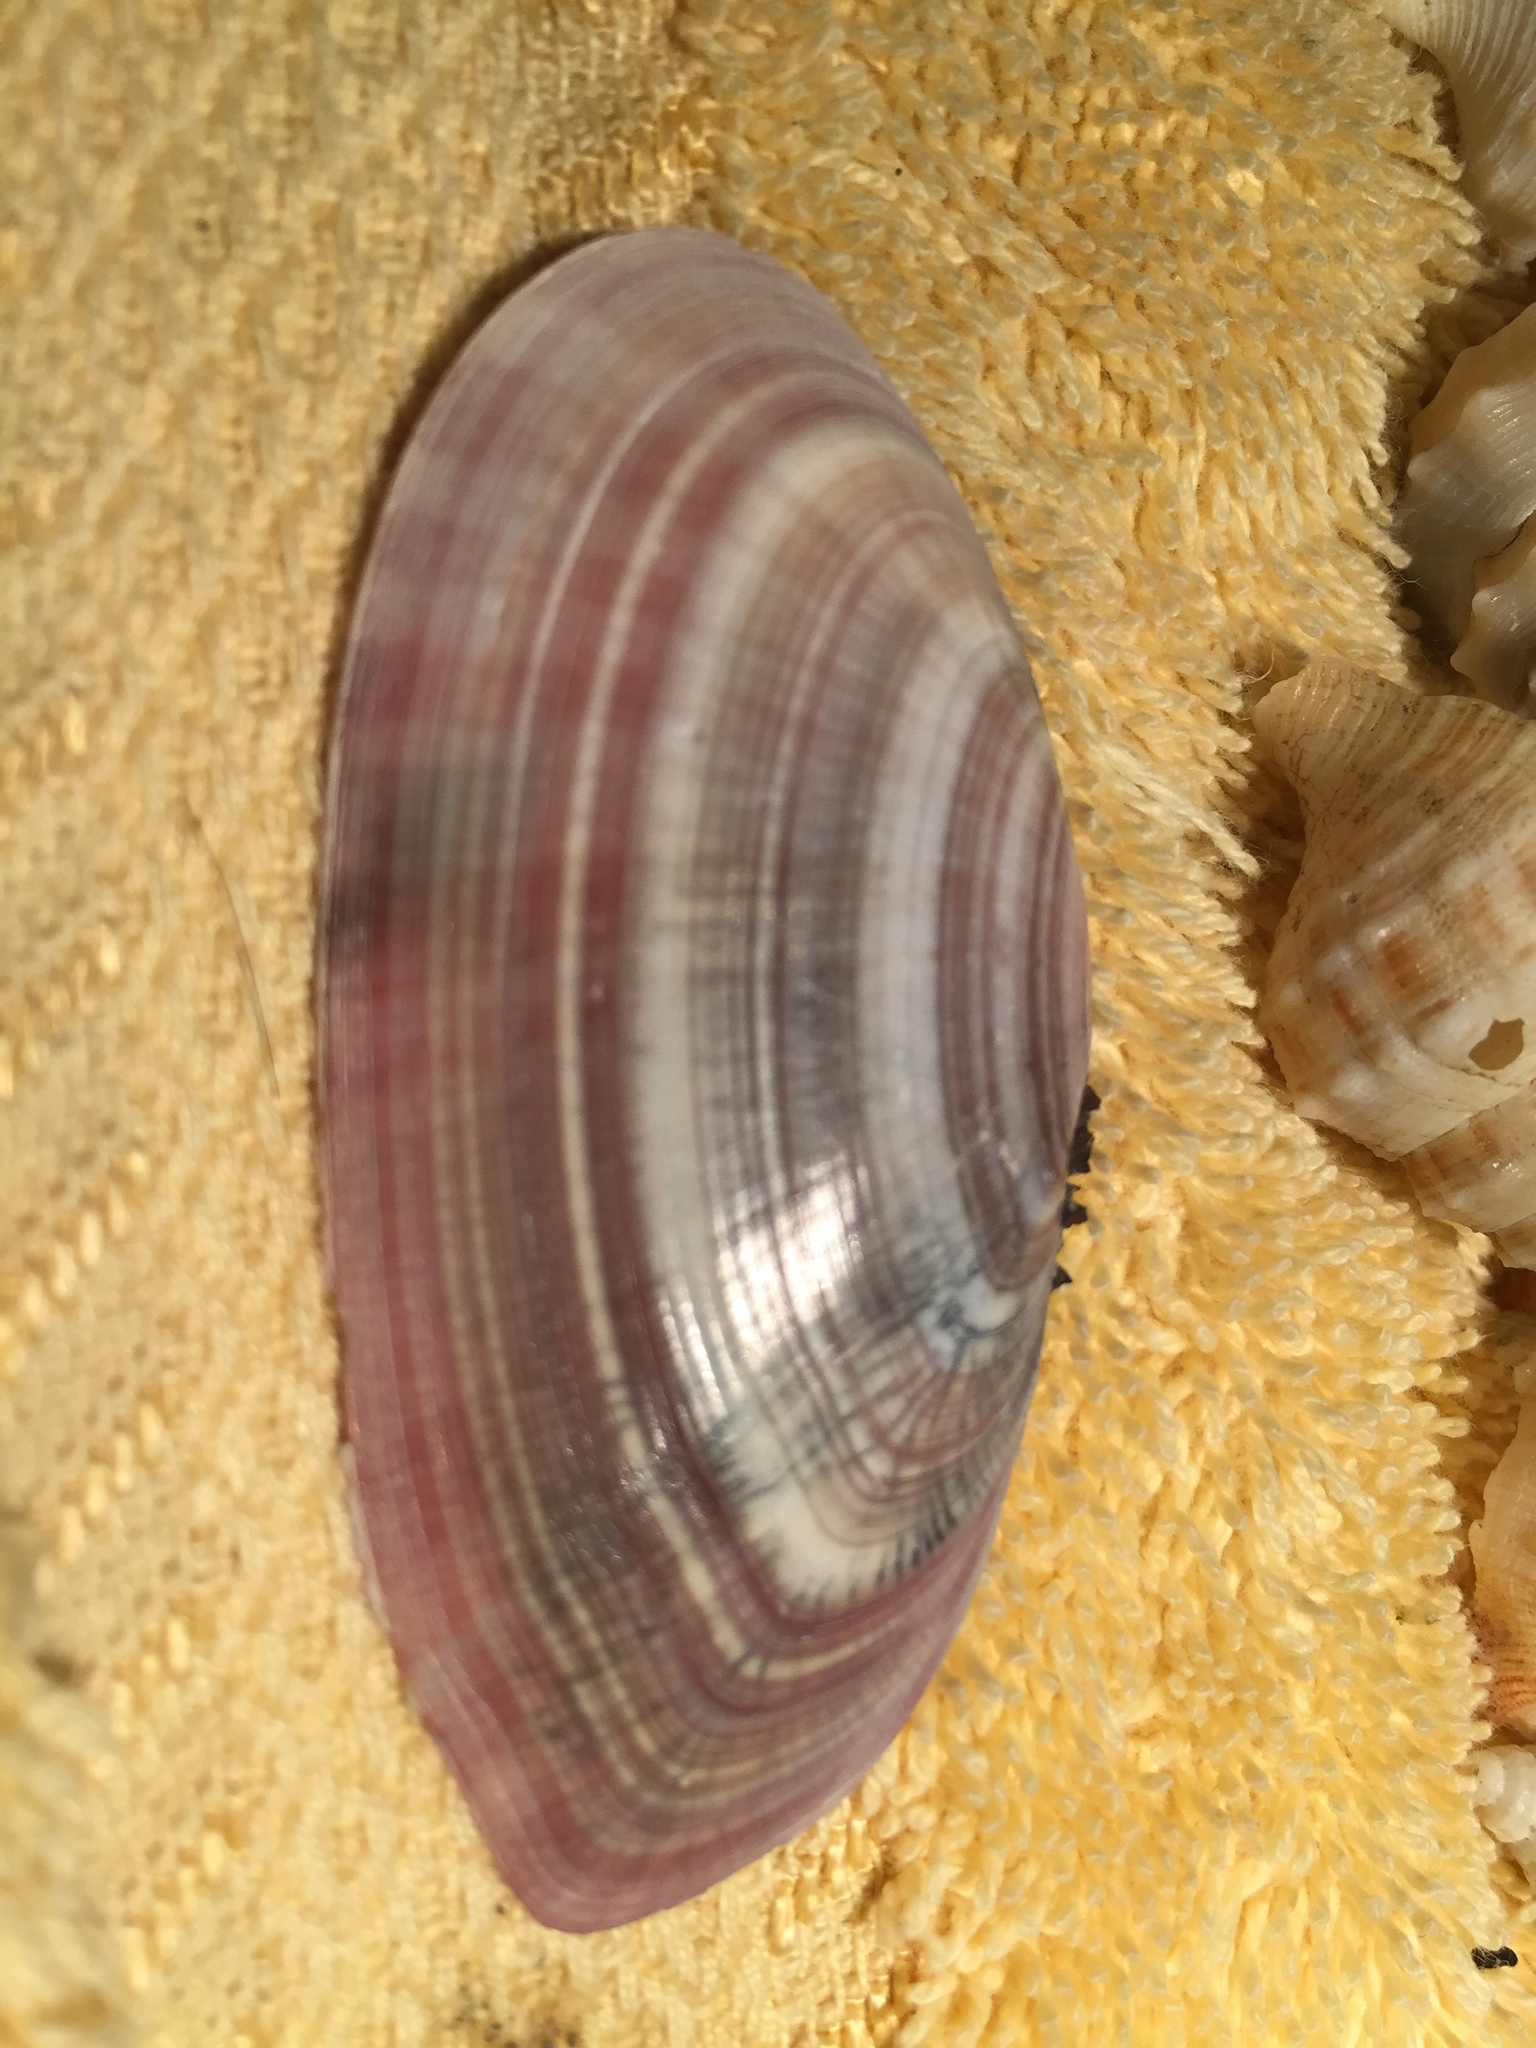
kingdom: Animalia
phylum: Mollusca
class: Bivalvia
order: Cardiida
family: Psammobiidae
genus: Gari
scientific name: Gari convexa
